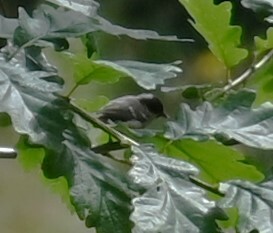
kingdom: Animalia
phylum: Chordata
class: Aves
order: Passeriformes
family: Paridae
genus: Periparus
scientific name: Periparus ater
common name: Coal tit
